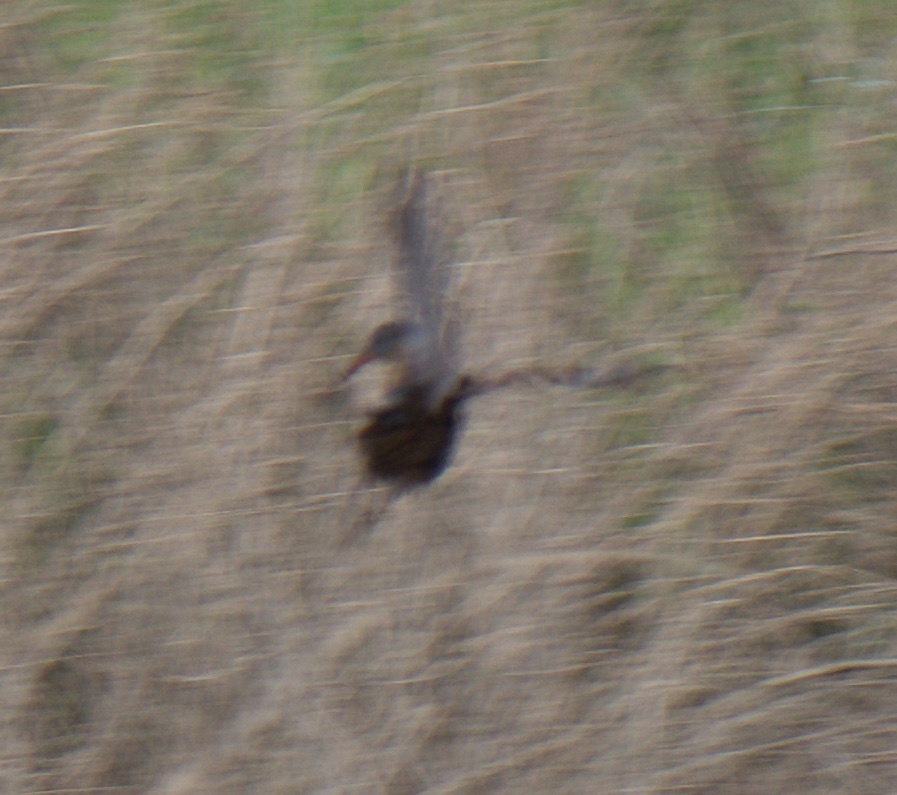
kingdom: Animalia
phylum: Chordata
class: Aves
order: Gruiformes
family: Rallidae
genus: Rallus
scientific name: Rallus limicola
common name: Virginia rail
